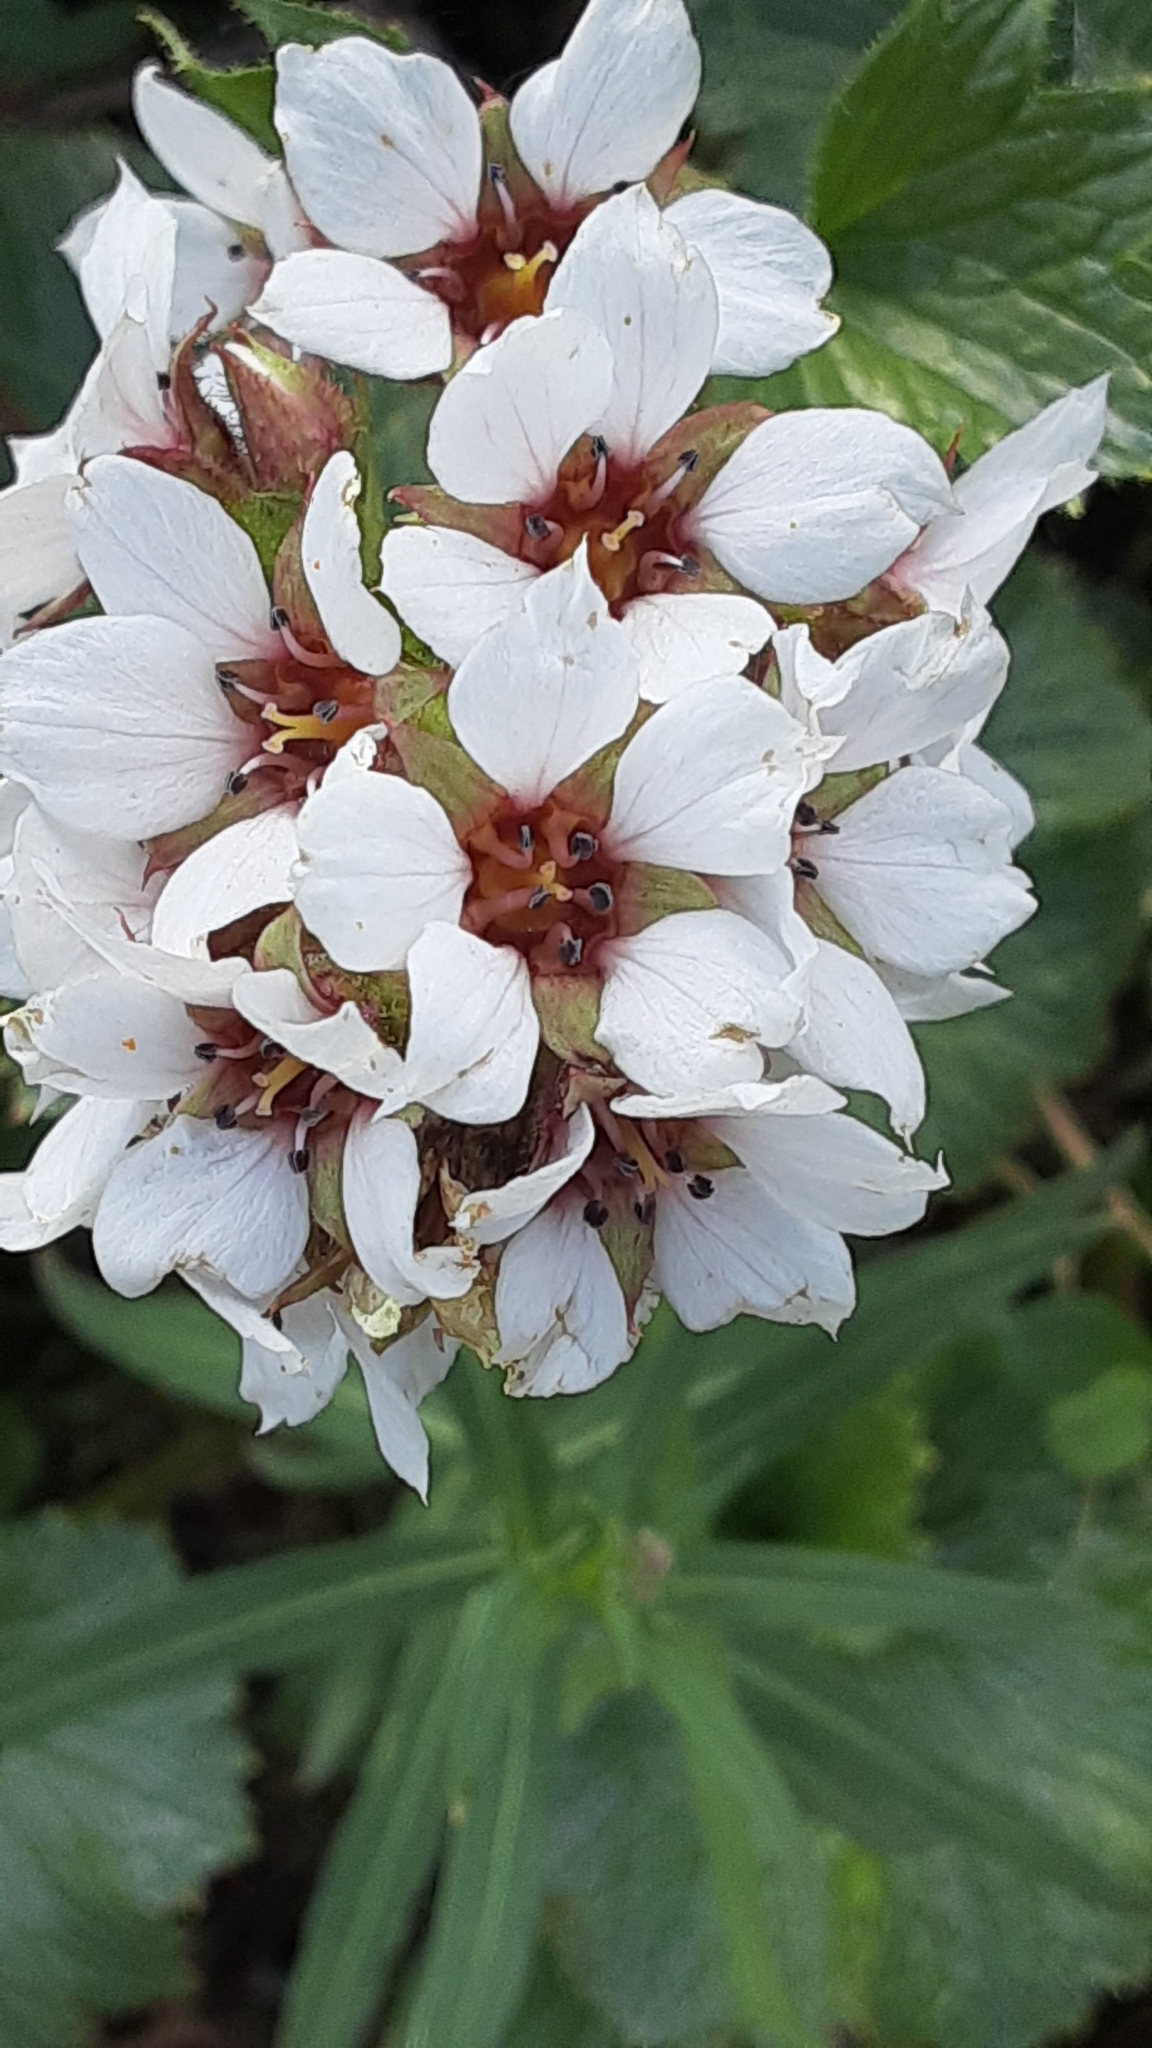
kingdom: Plantae
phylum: Tracheophyta
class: Magnoliopsida
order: Saxifragales
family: Saxifragaceae
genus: Boykinia
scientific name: Boykinia richardsonii
